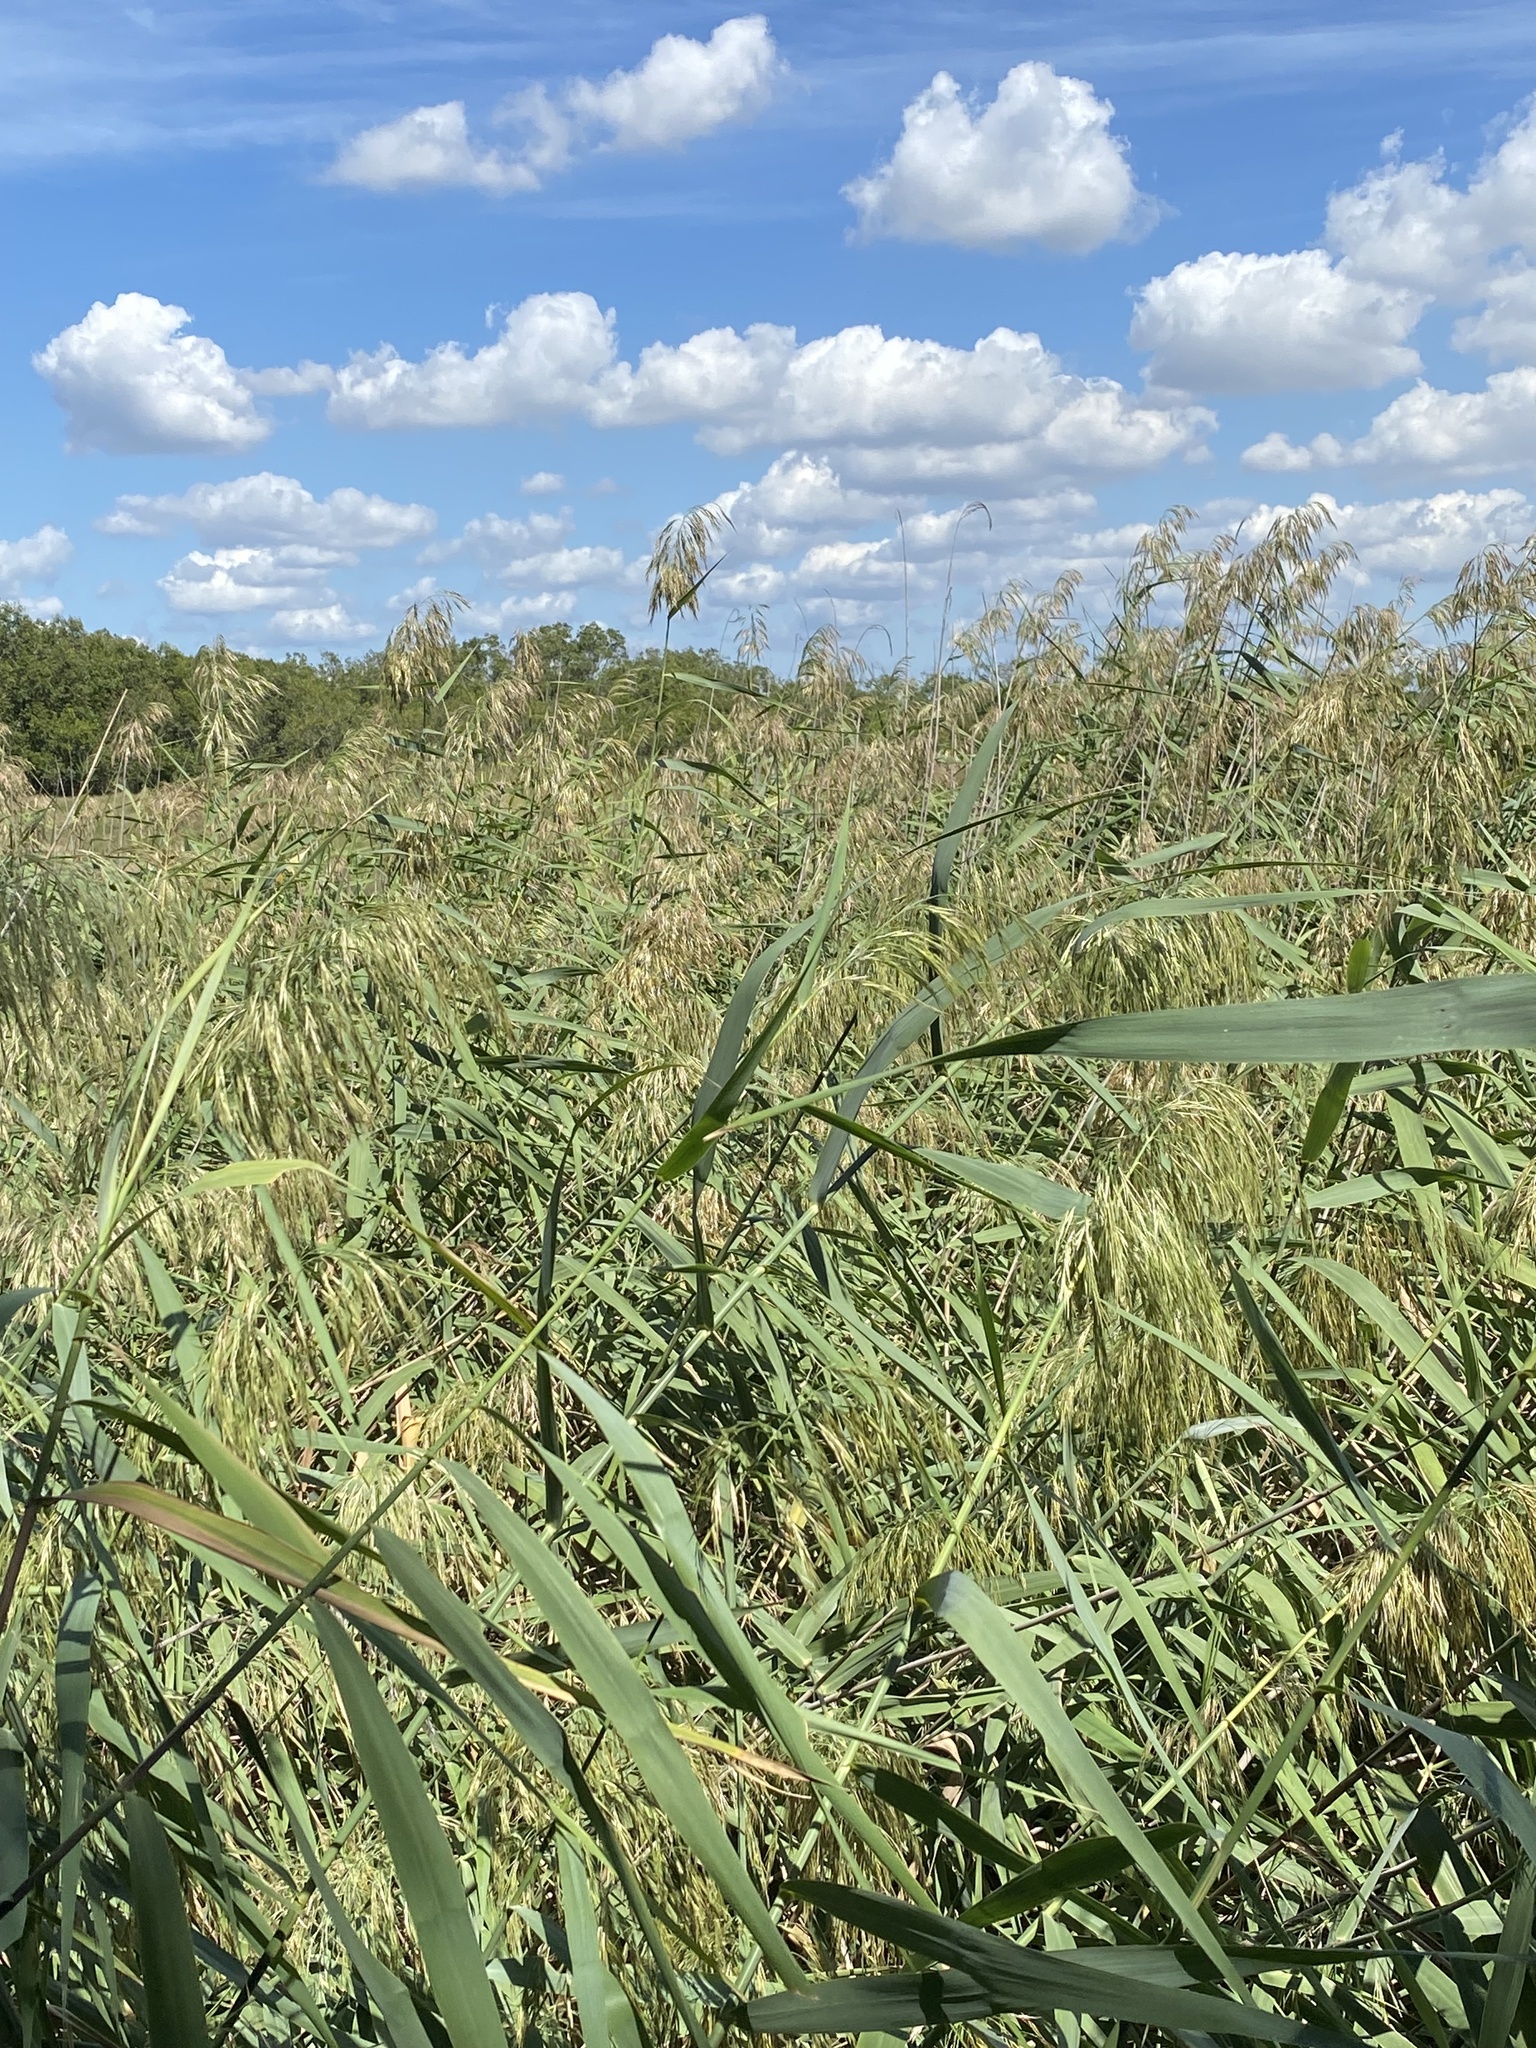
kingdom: Plantae
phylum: Tracheophyta
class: Liliopsida
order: Poales
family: Poaceae
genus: Phragmites
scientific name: Phragmites australis
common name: Common reed
